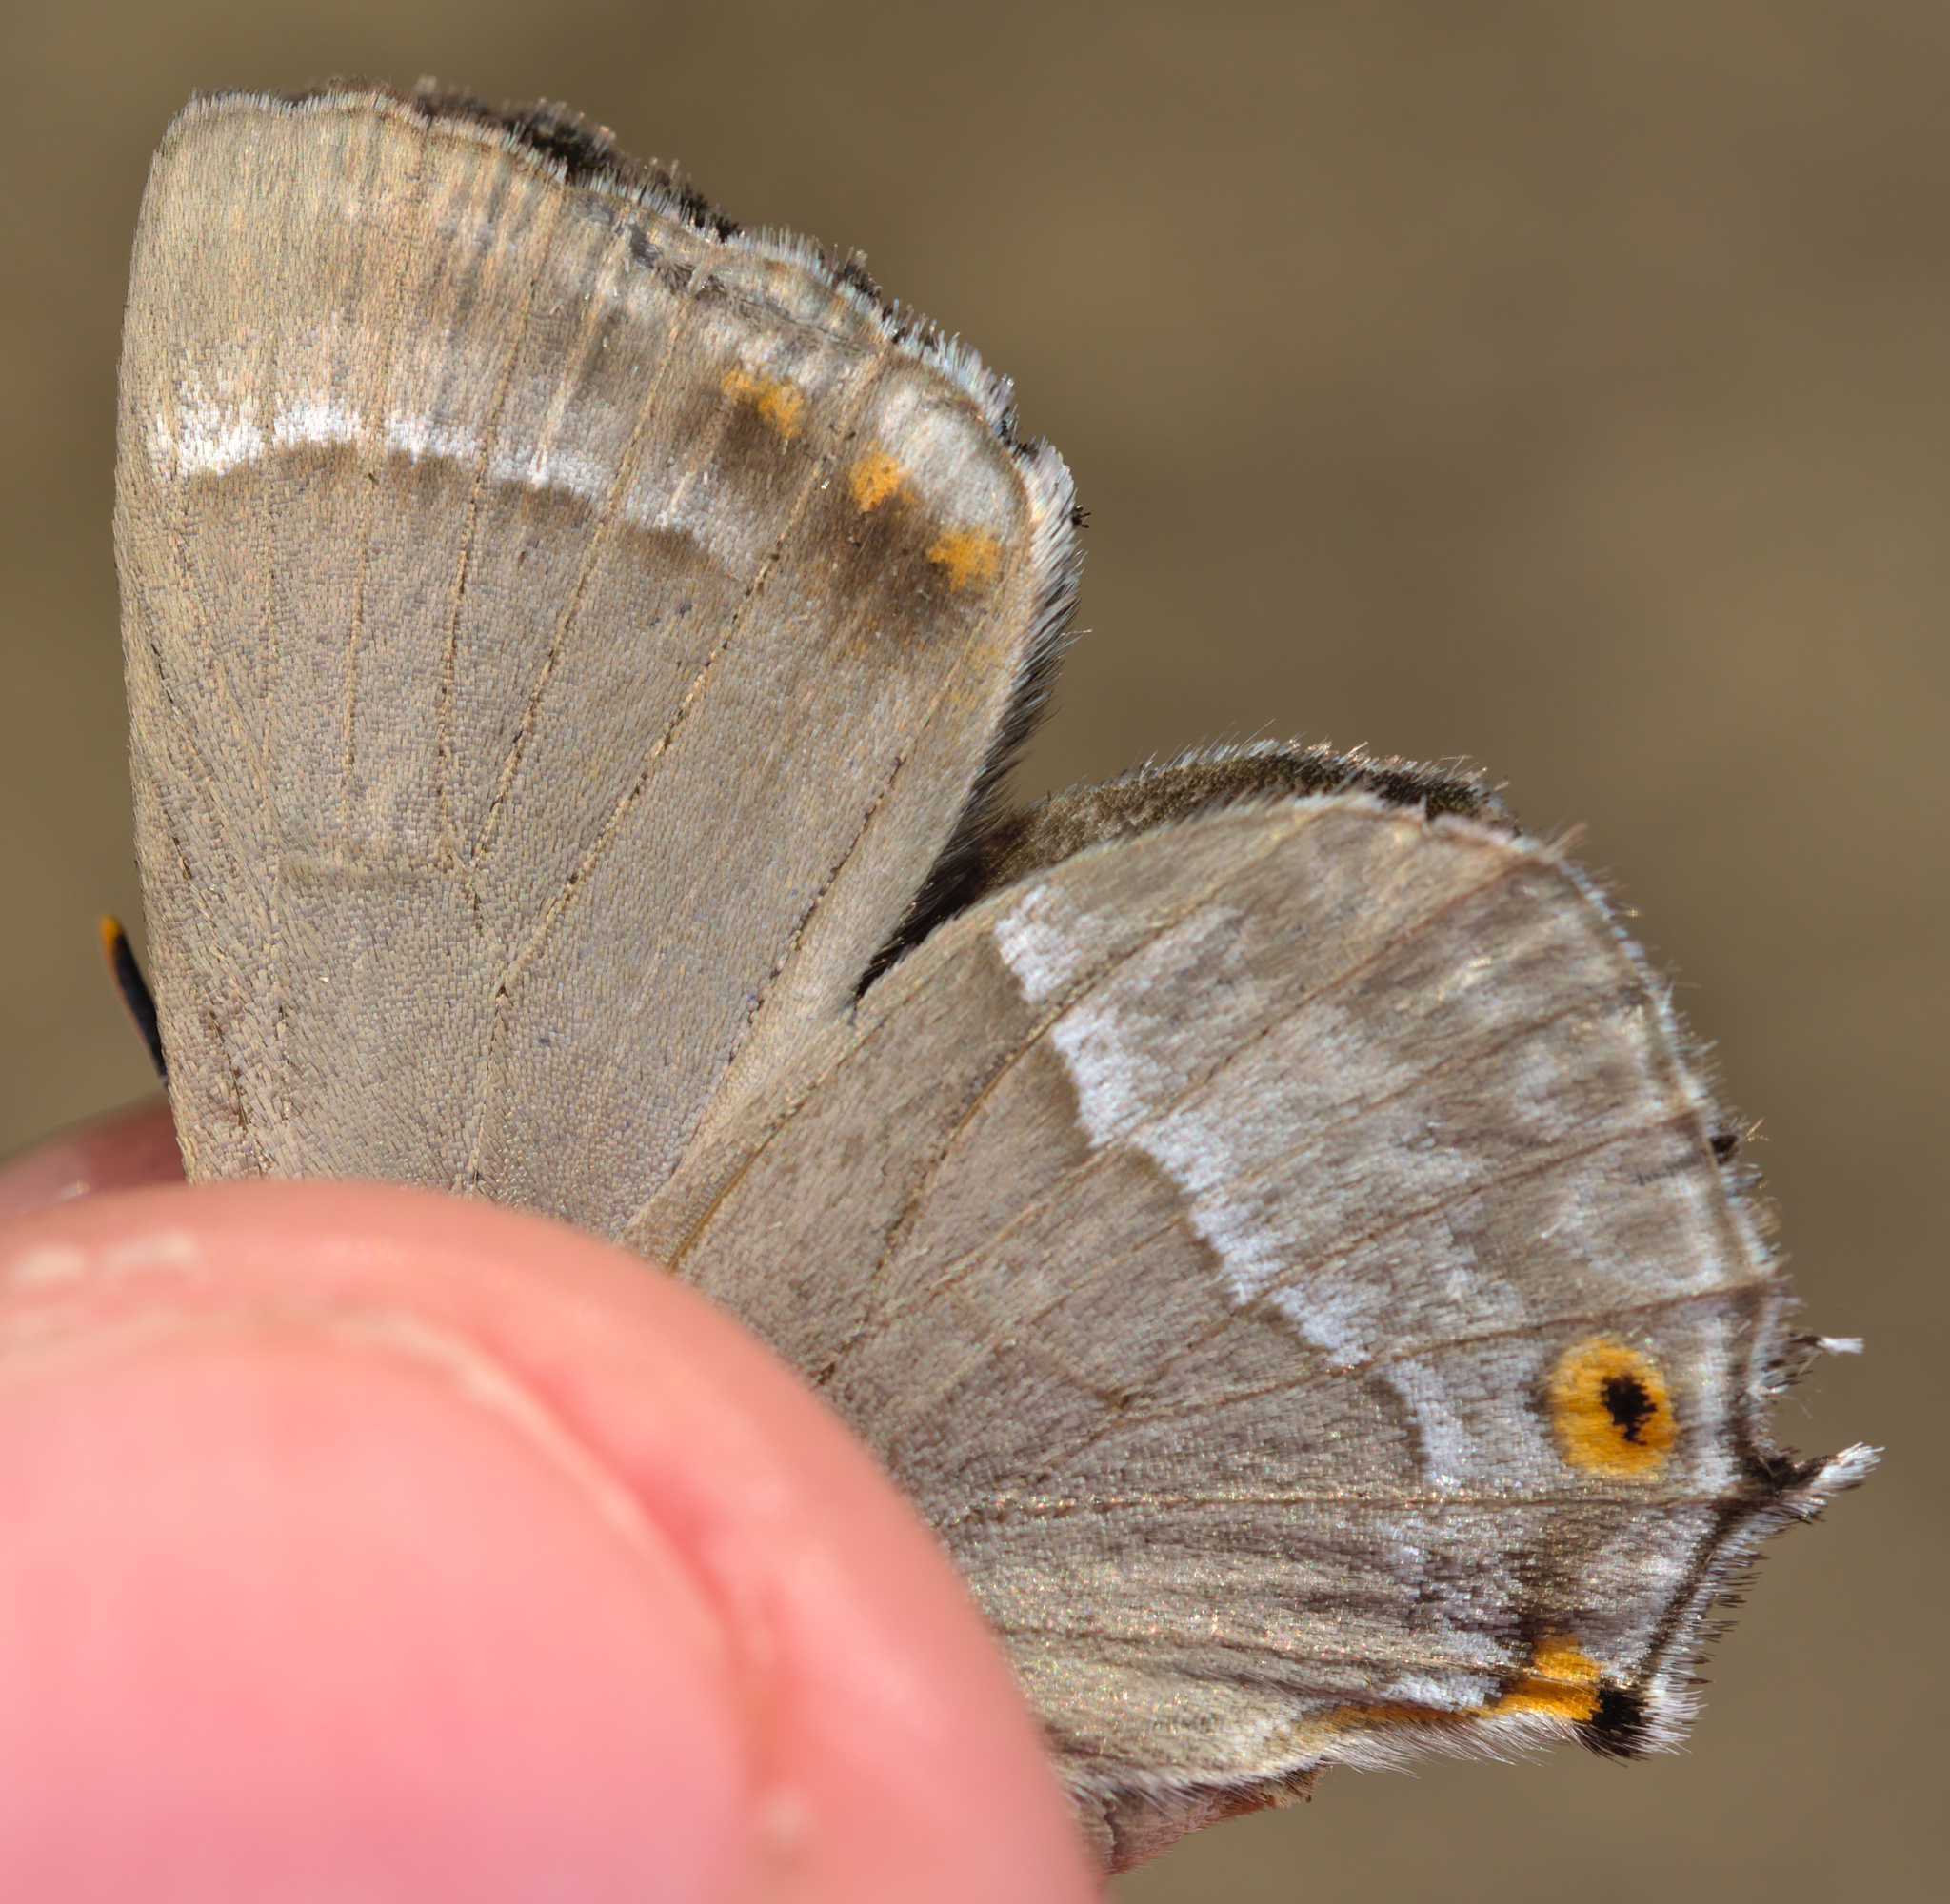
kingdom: Animalia
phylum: Arthropoda
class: Insecta
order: Lepidoptera
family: Lycaenidae
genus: Quercusia
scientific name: Quercusia quercus
